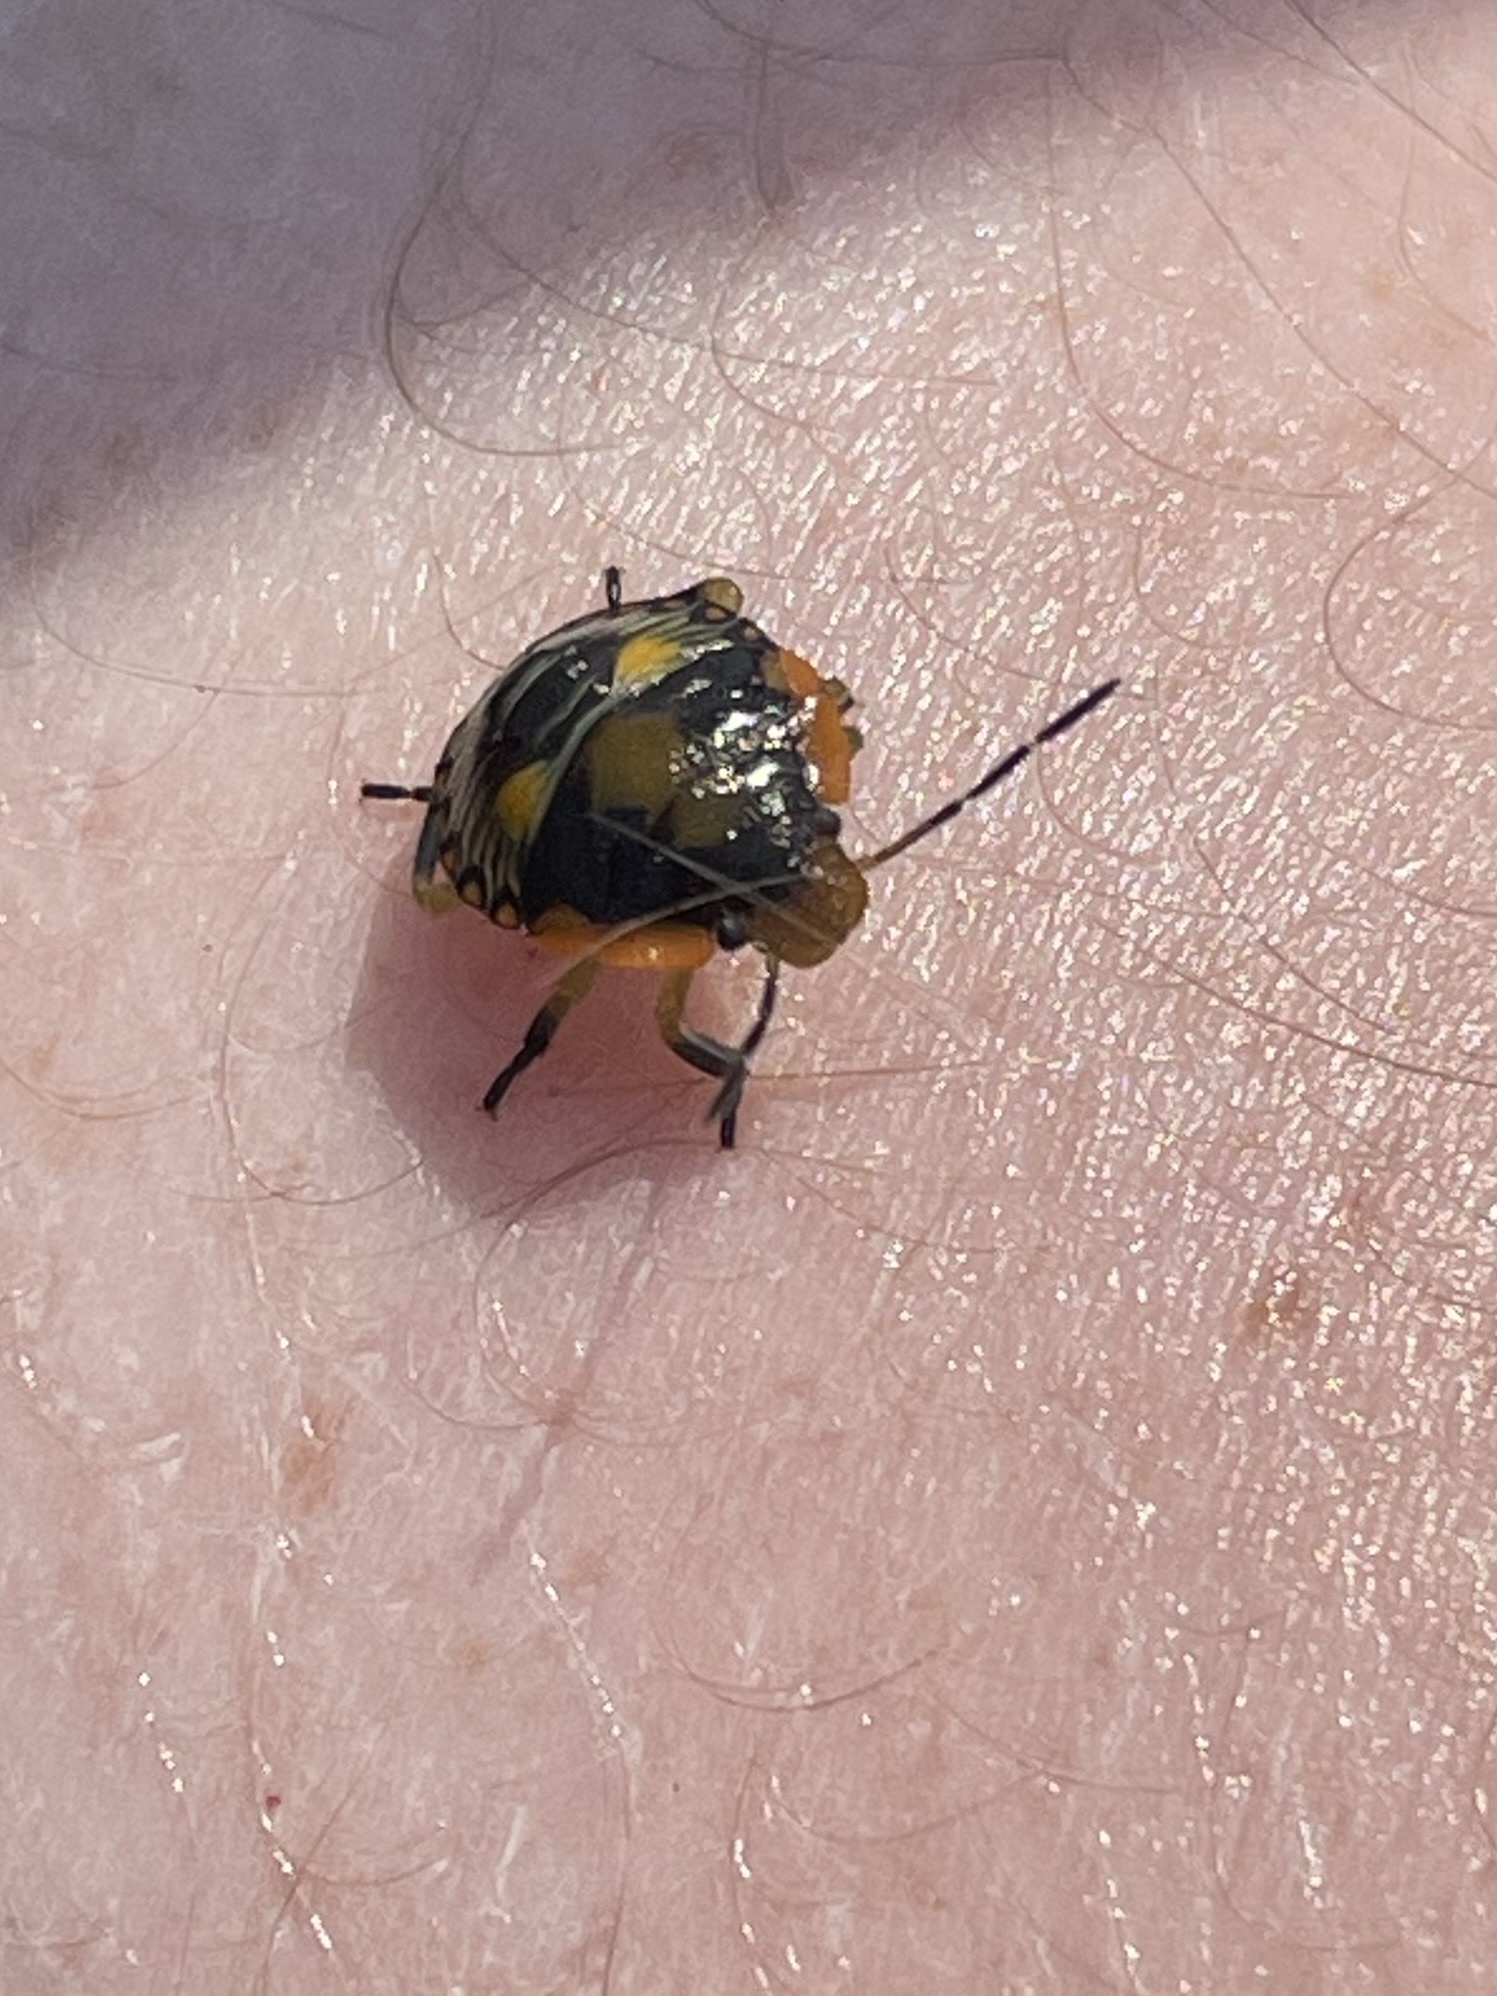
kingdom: Animalia
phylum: Arthropoda
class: Insecta
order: Hemiptera
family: Pentatomidae
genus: Chinavia
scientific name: Chinavia hilaris
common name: Green stink bug
